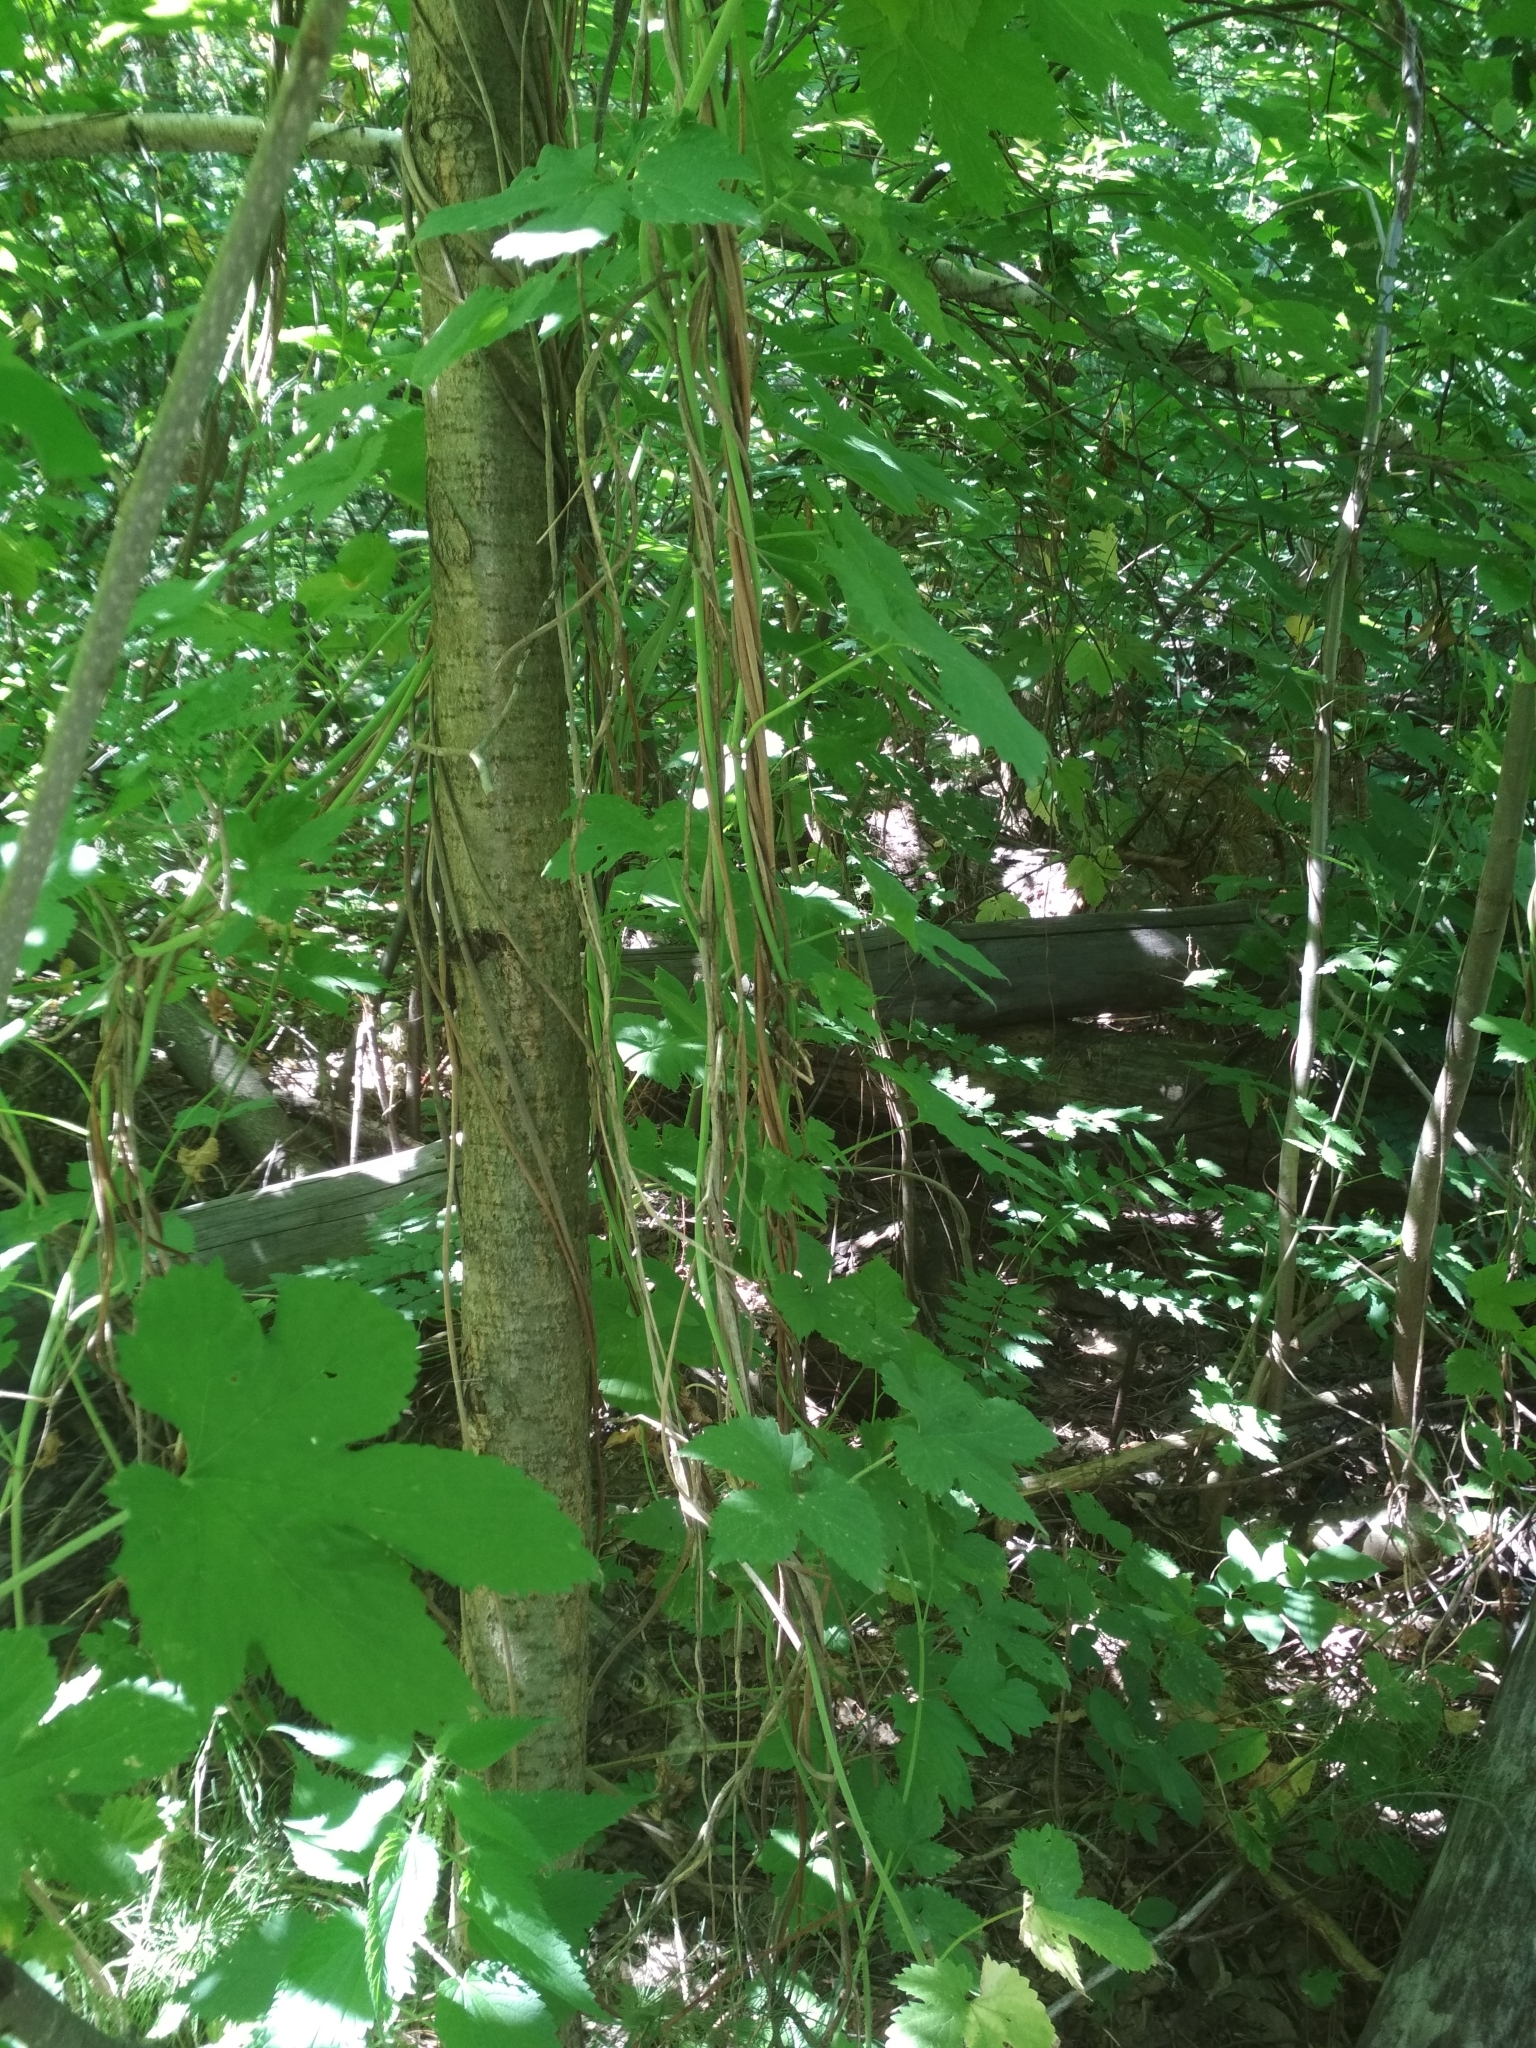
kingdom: Plantae
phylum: Tracheophyta
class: Magnoliopsida
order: Rosales
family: Cannabaceae
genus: Humulus
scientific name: Humulus lupulus
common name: Hop
